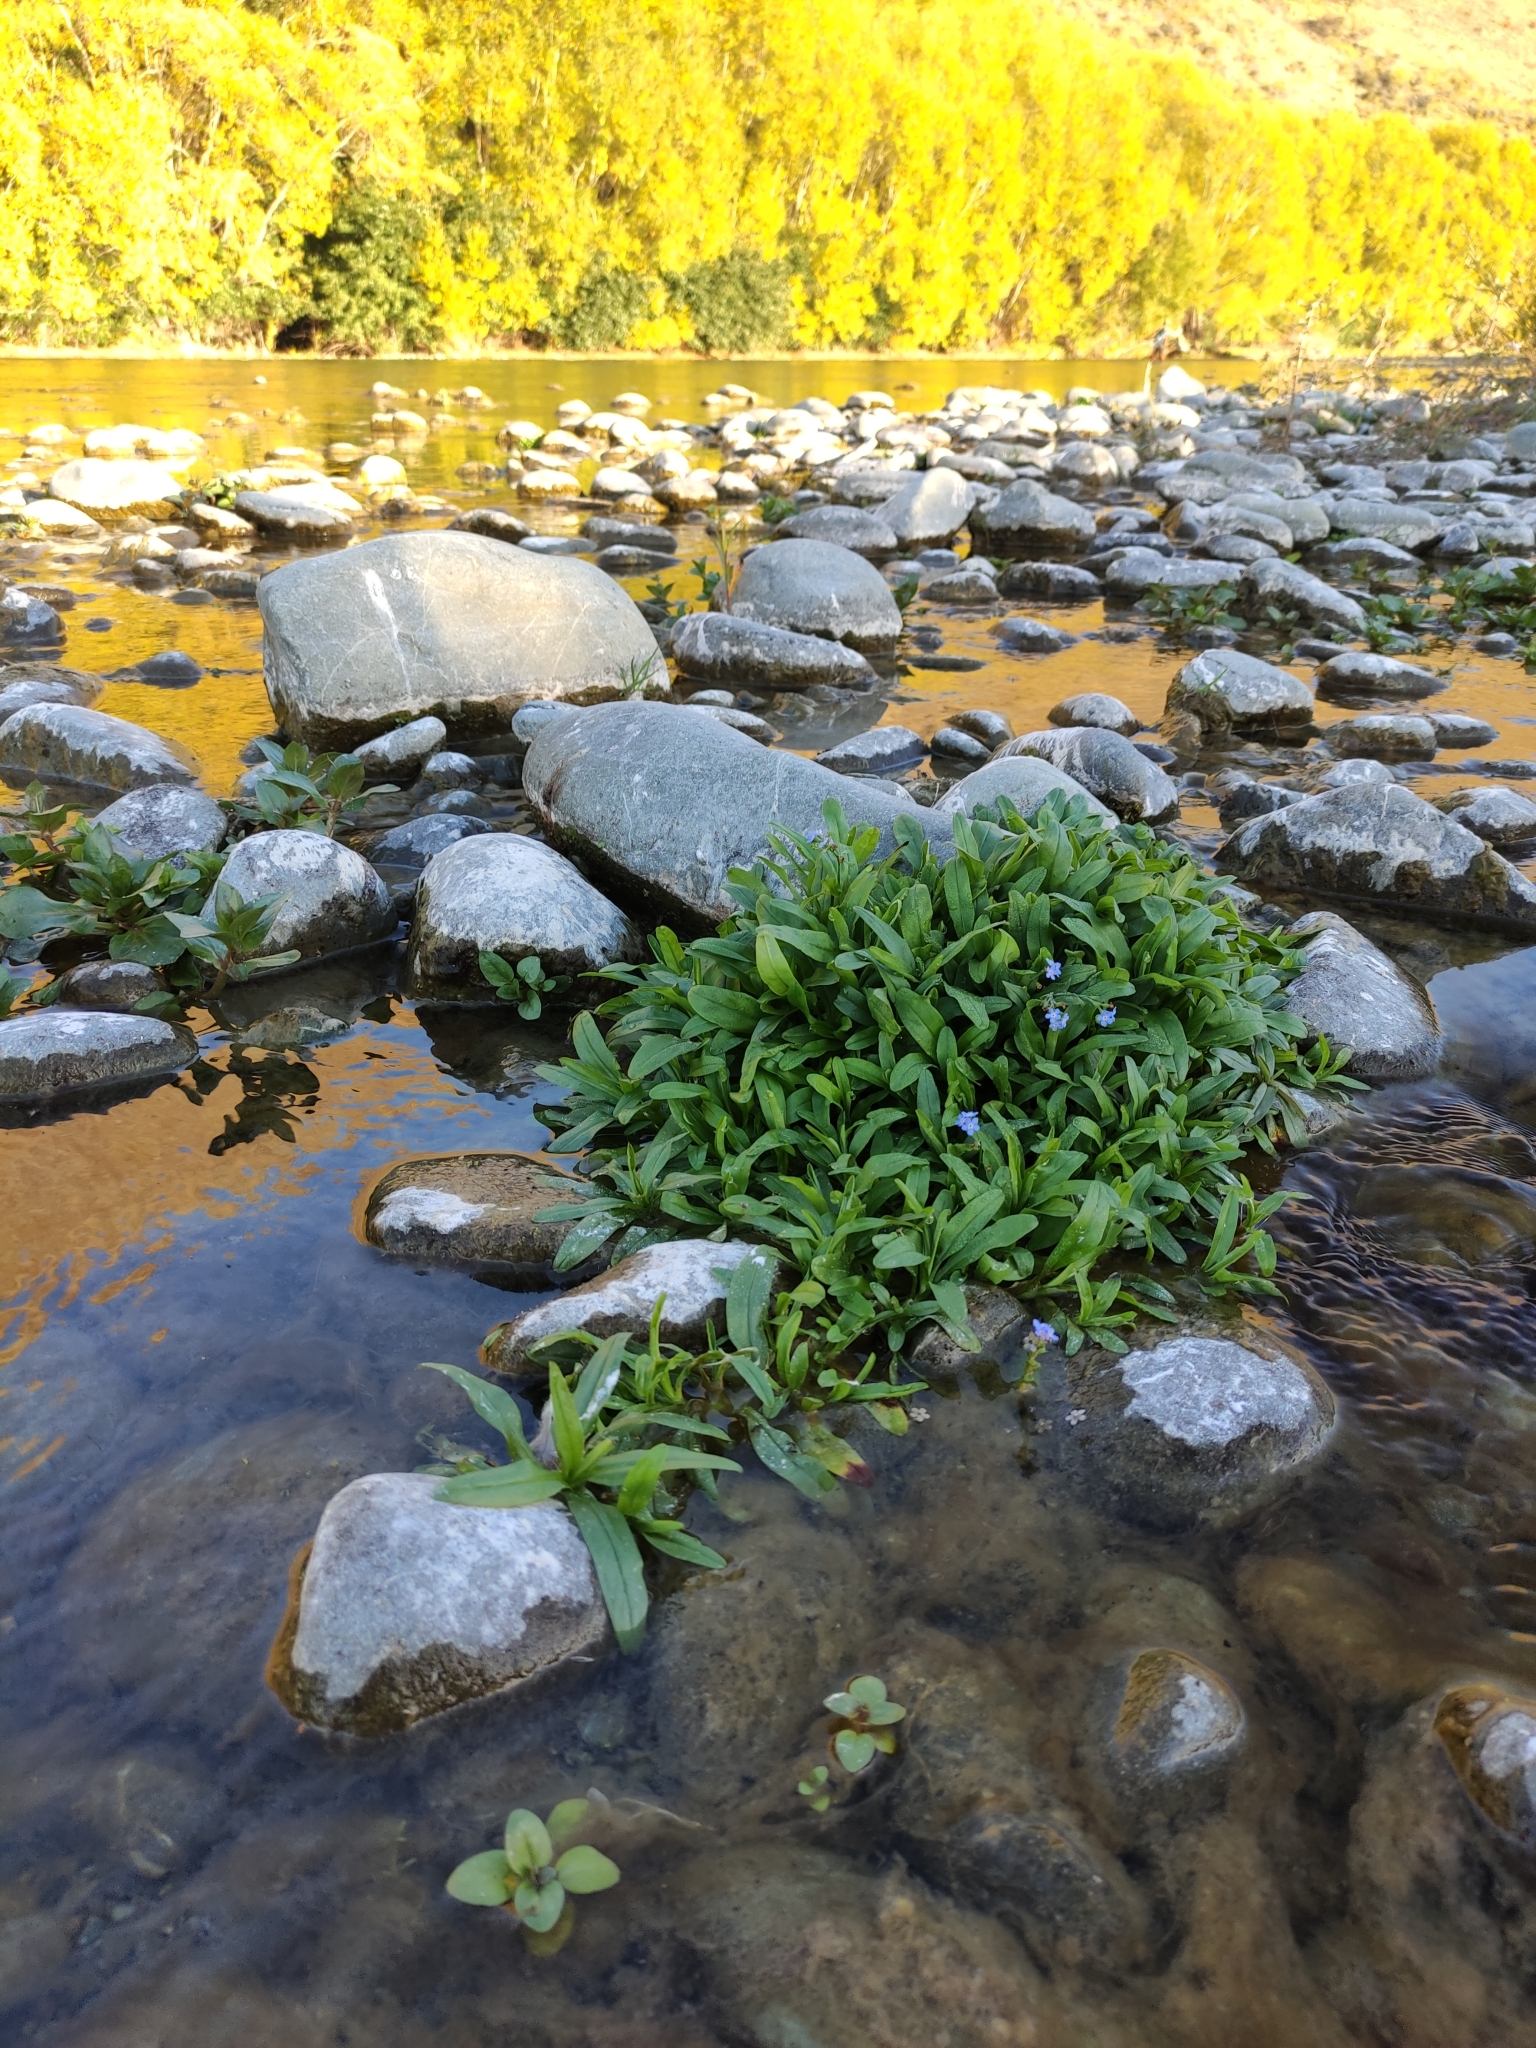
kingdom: Plantae
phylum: Tracheophyta
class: Magnoliopsida
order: Boraginales
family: Boraginaceae
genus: Myosotis
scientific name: Myosotis scorpioides
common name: Water forget-me-not
